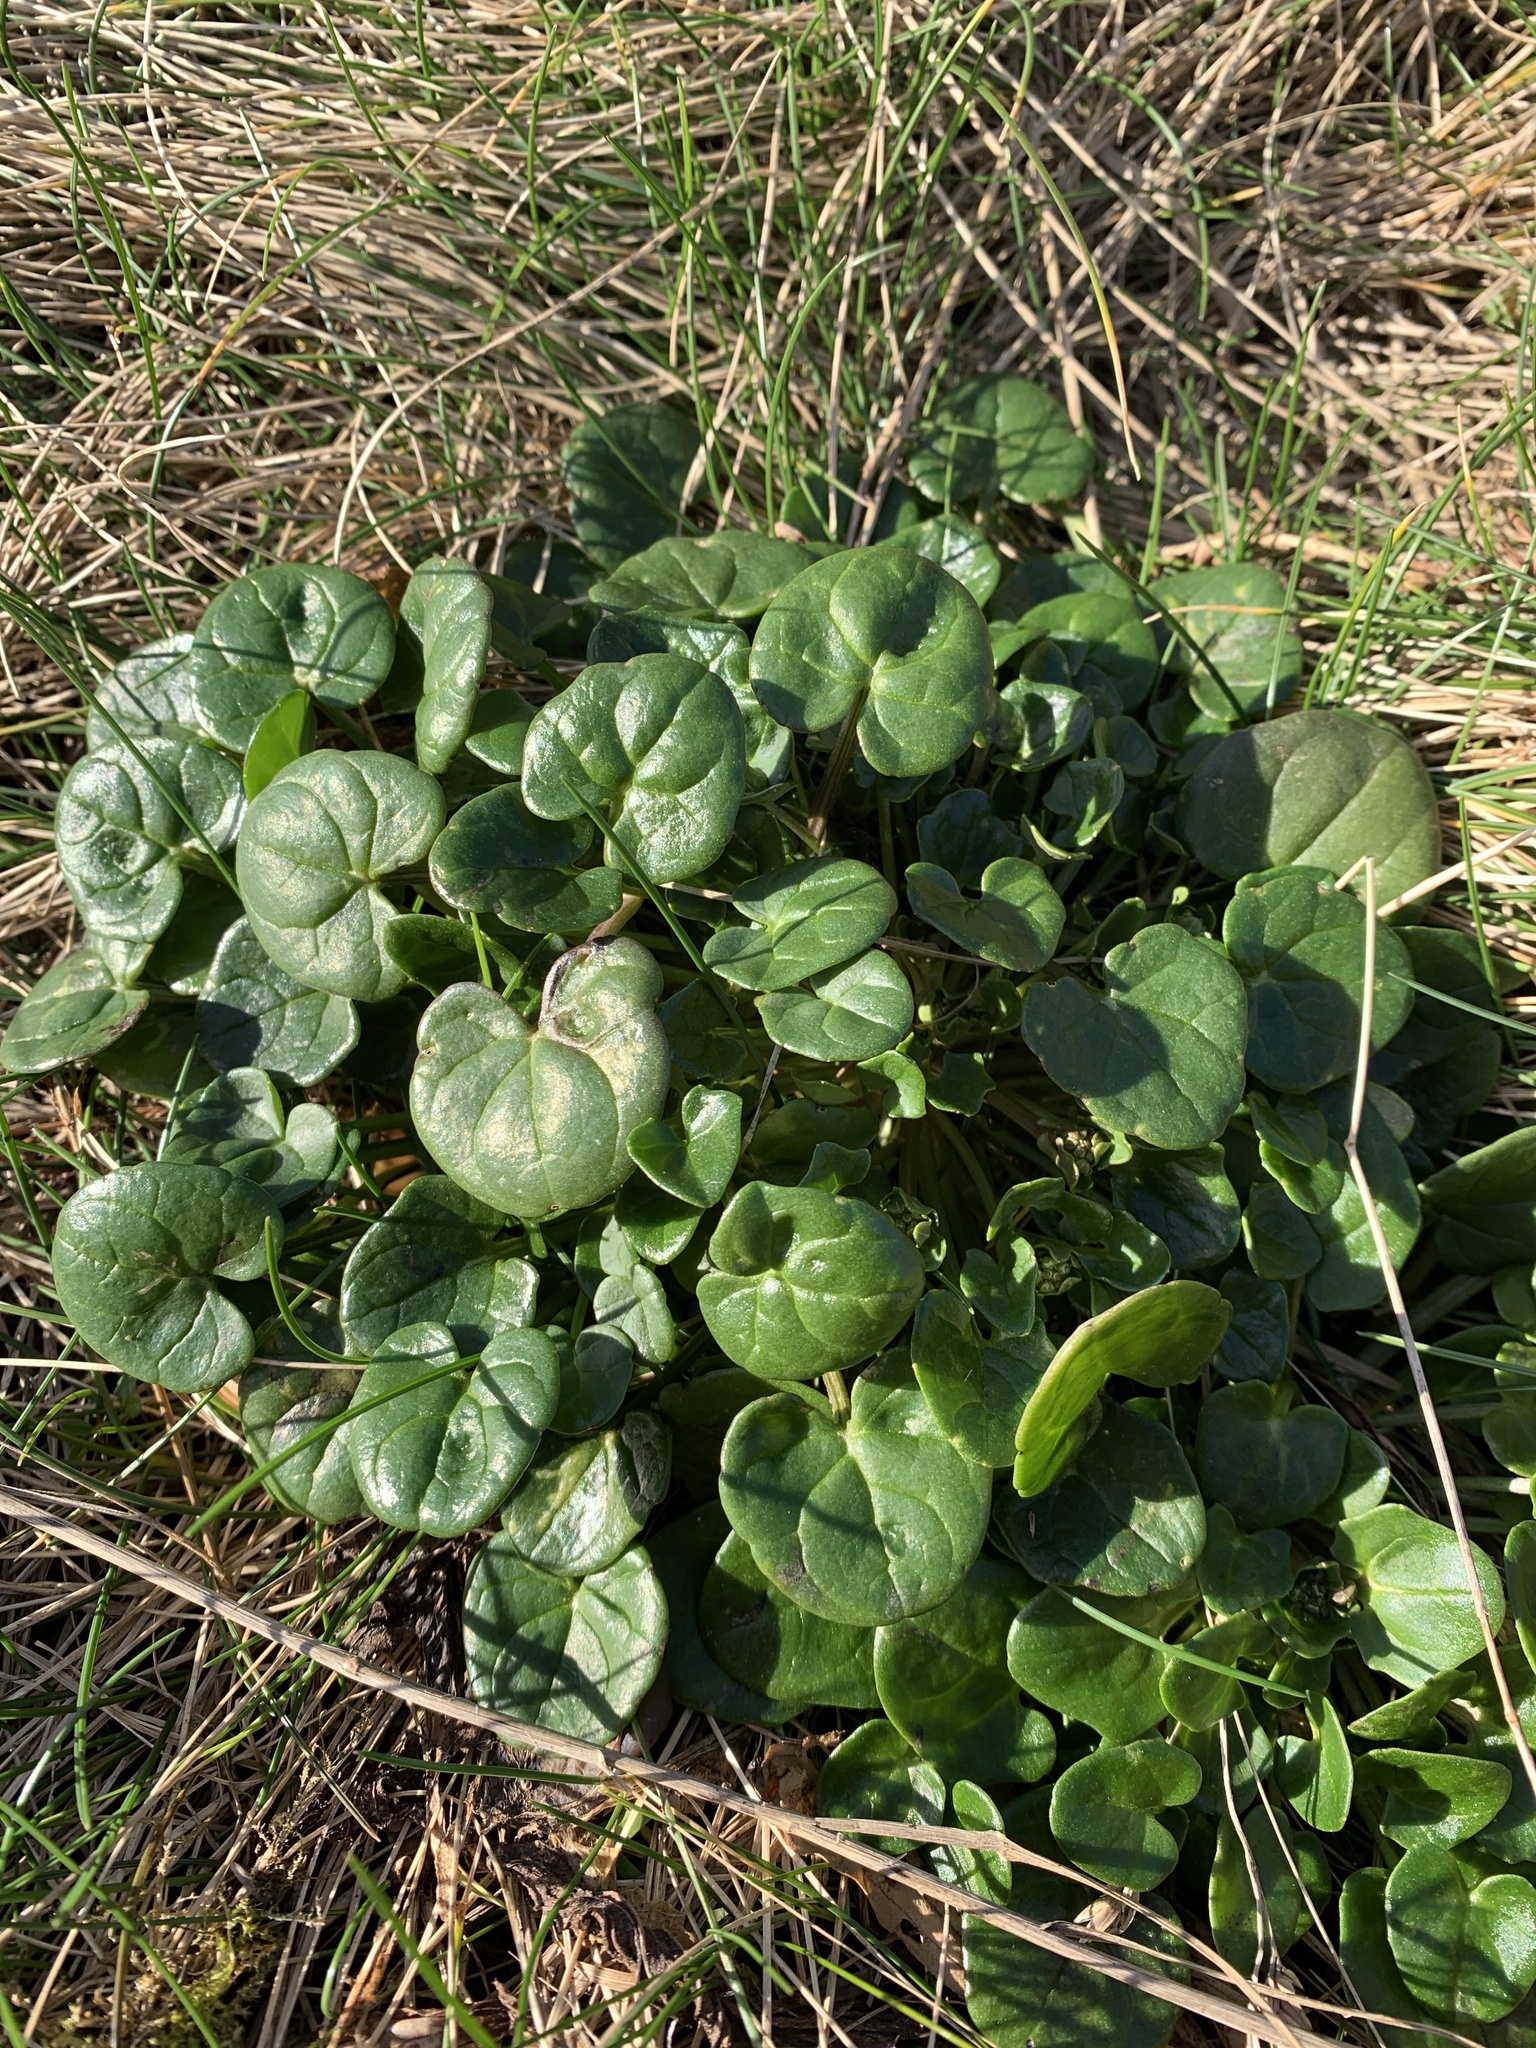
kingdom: Plantae
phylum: Tracheophyta
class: Magnoliopsida
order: Brassicales
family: Brassicaceae
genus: Cochlearia
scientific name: Cochlearia officinalis
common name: Scurvy-grass
